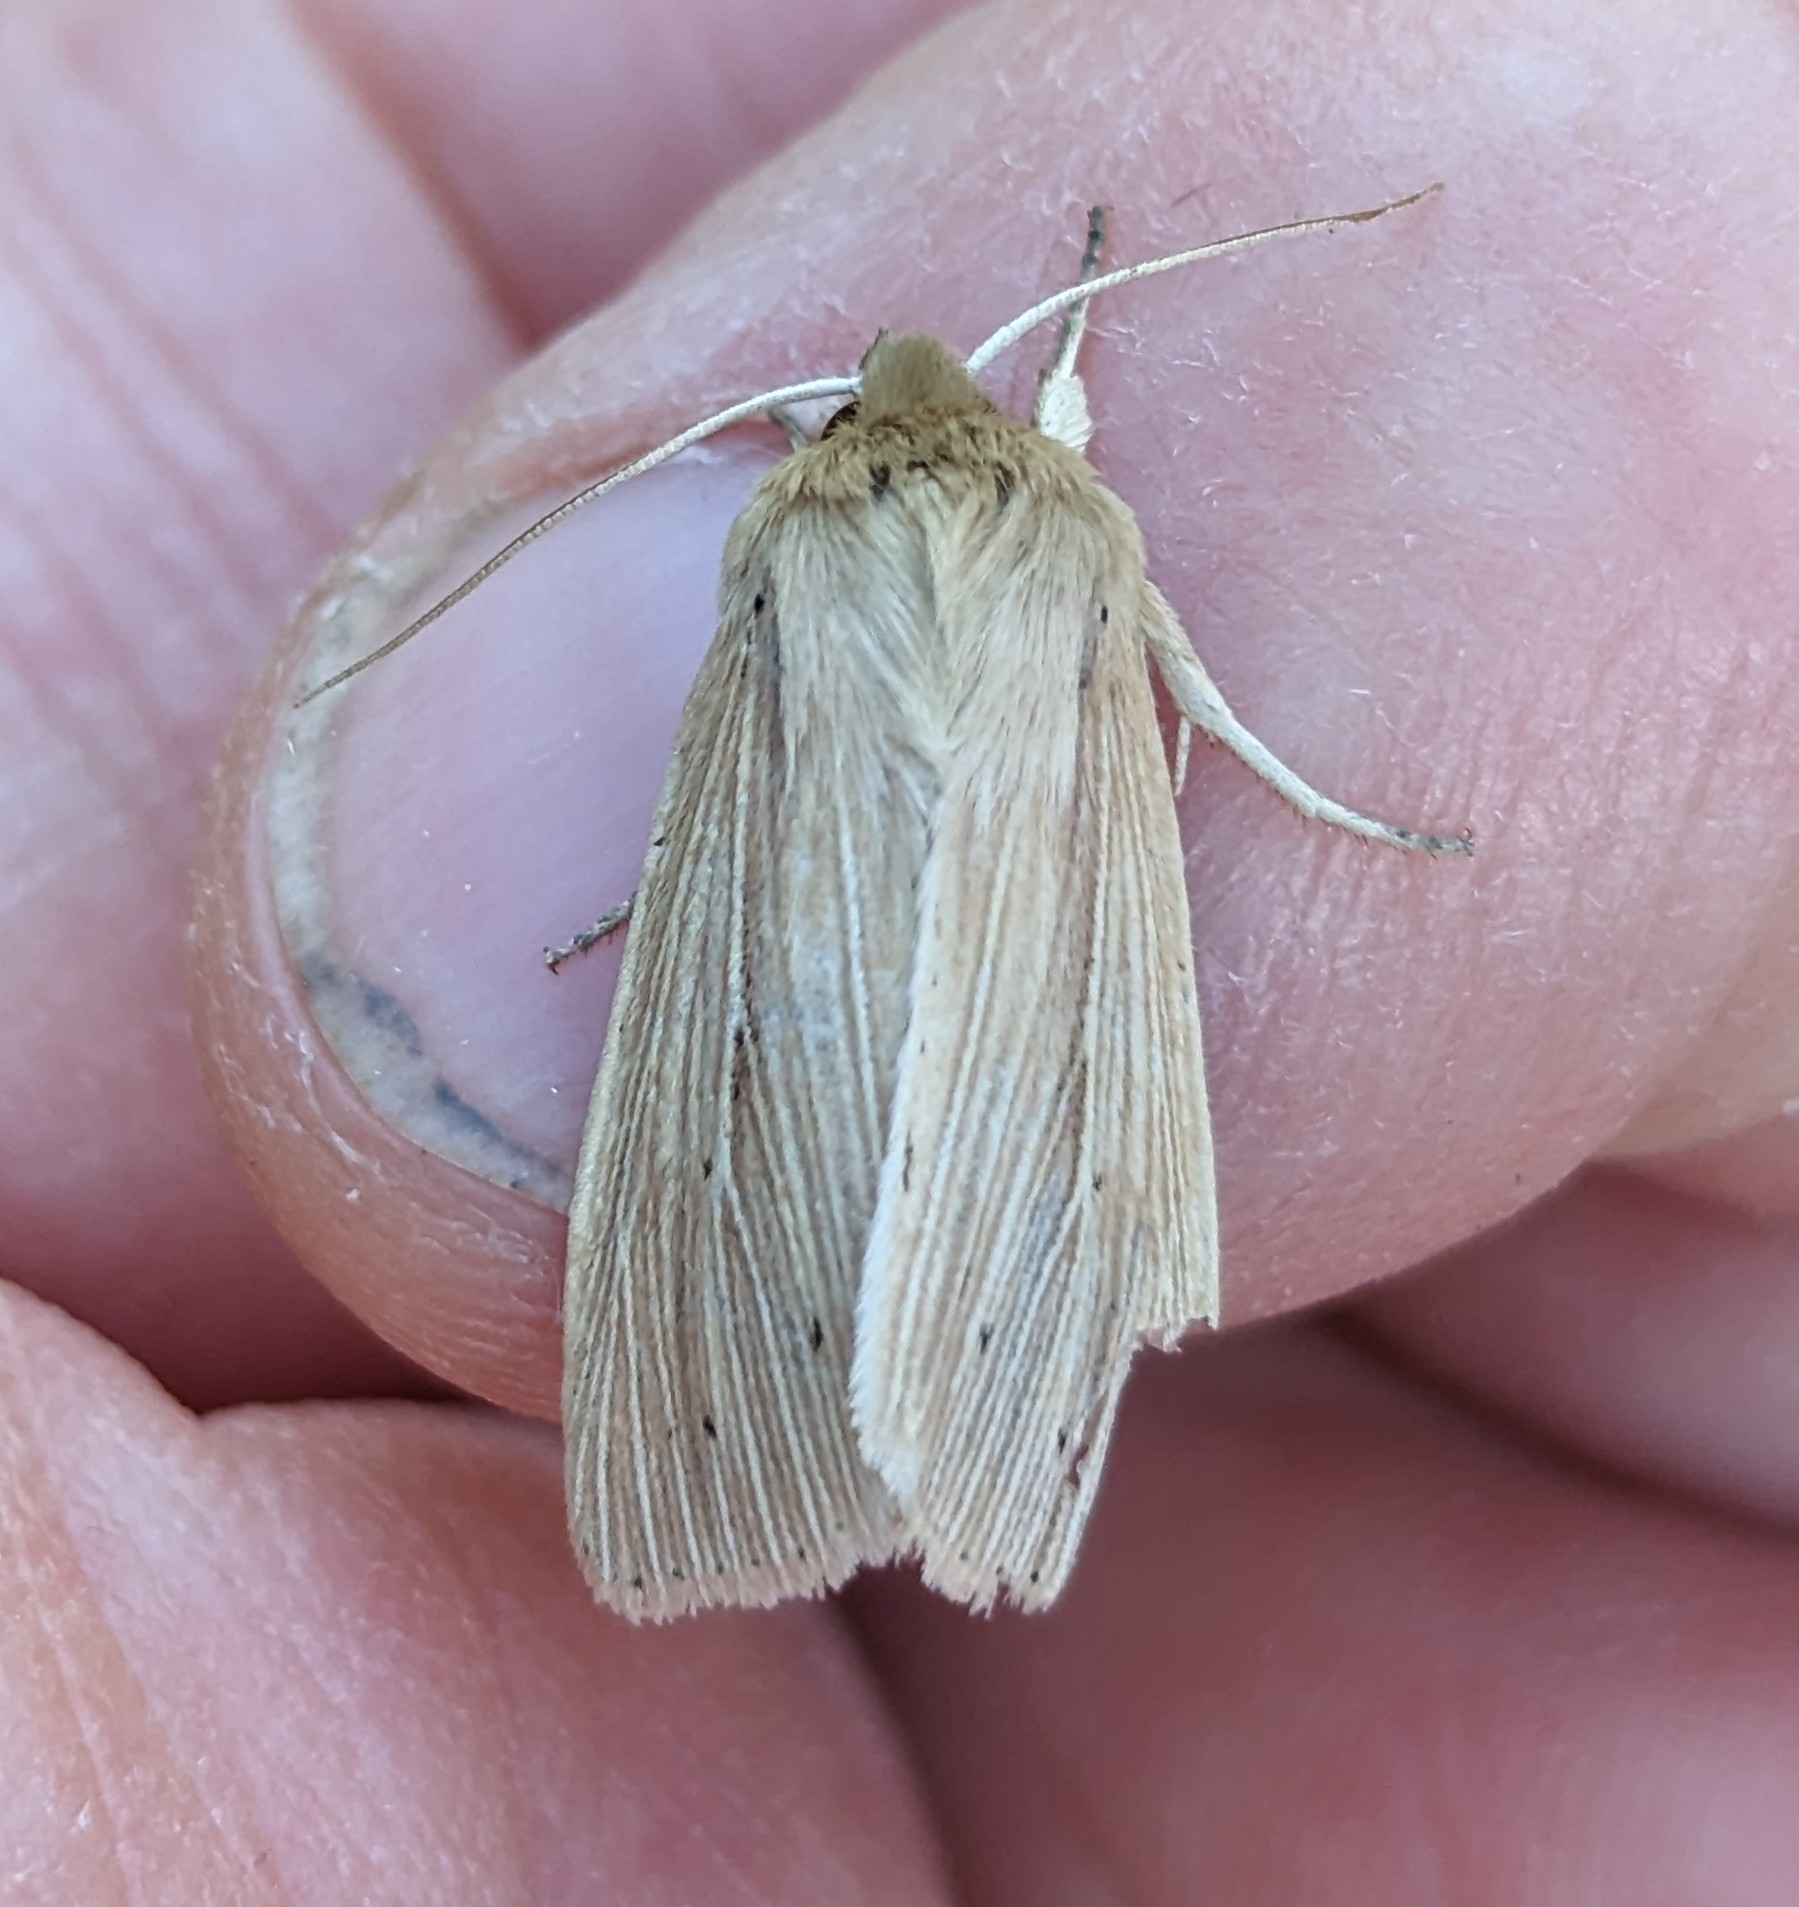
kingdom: Animalia
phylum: Arthropoda
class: Insecta
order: Lepidoptera
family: Noctuidae
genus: Mythimna
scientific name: Mythimna oxygala
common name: Lesser wainscot
